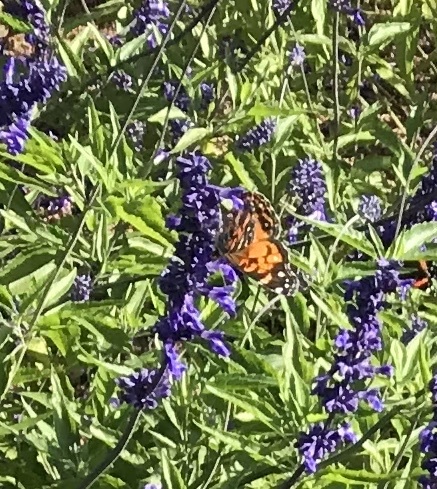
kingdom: Animalia
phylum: Arthropoda
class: Insecta
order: Lepidoptera
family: Nymphalidae
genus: Vanessa
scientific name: Vanessa virginiensis
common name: American lady
